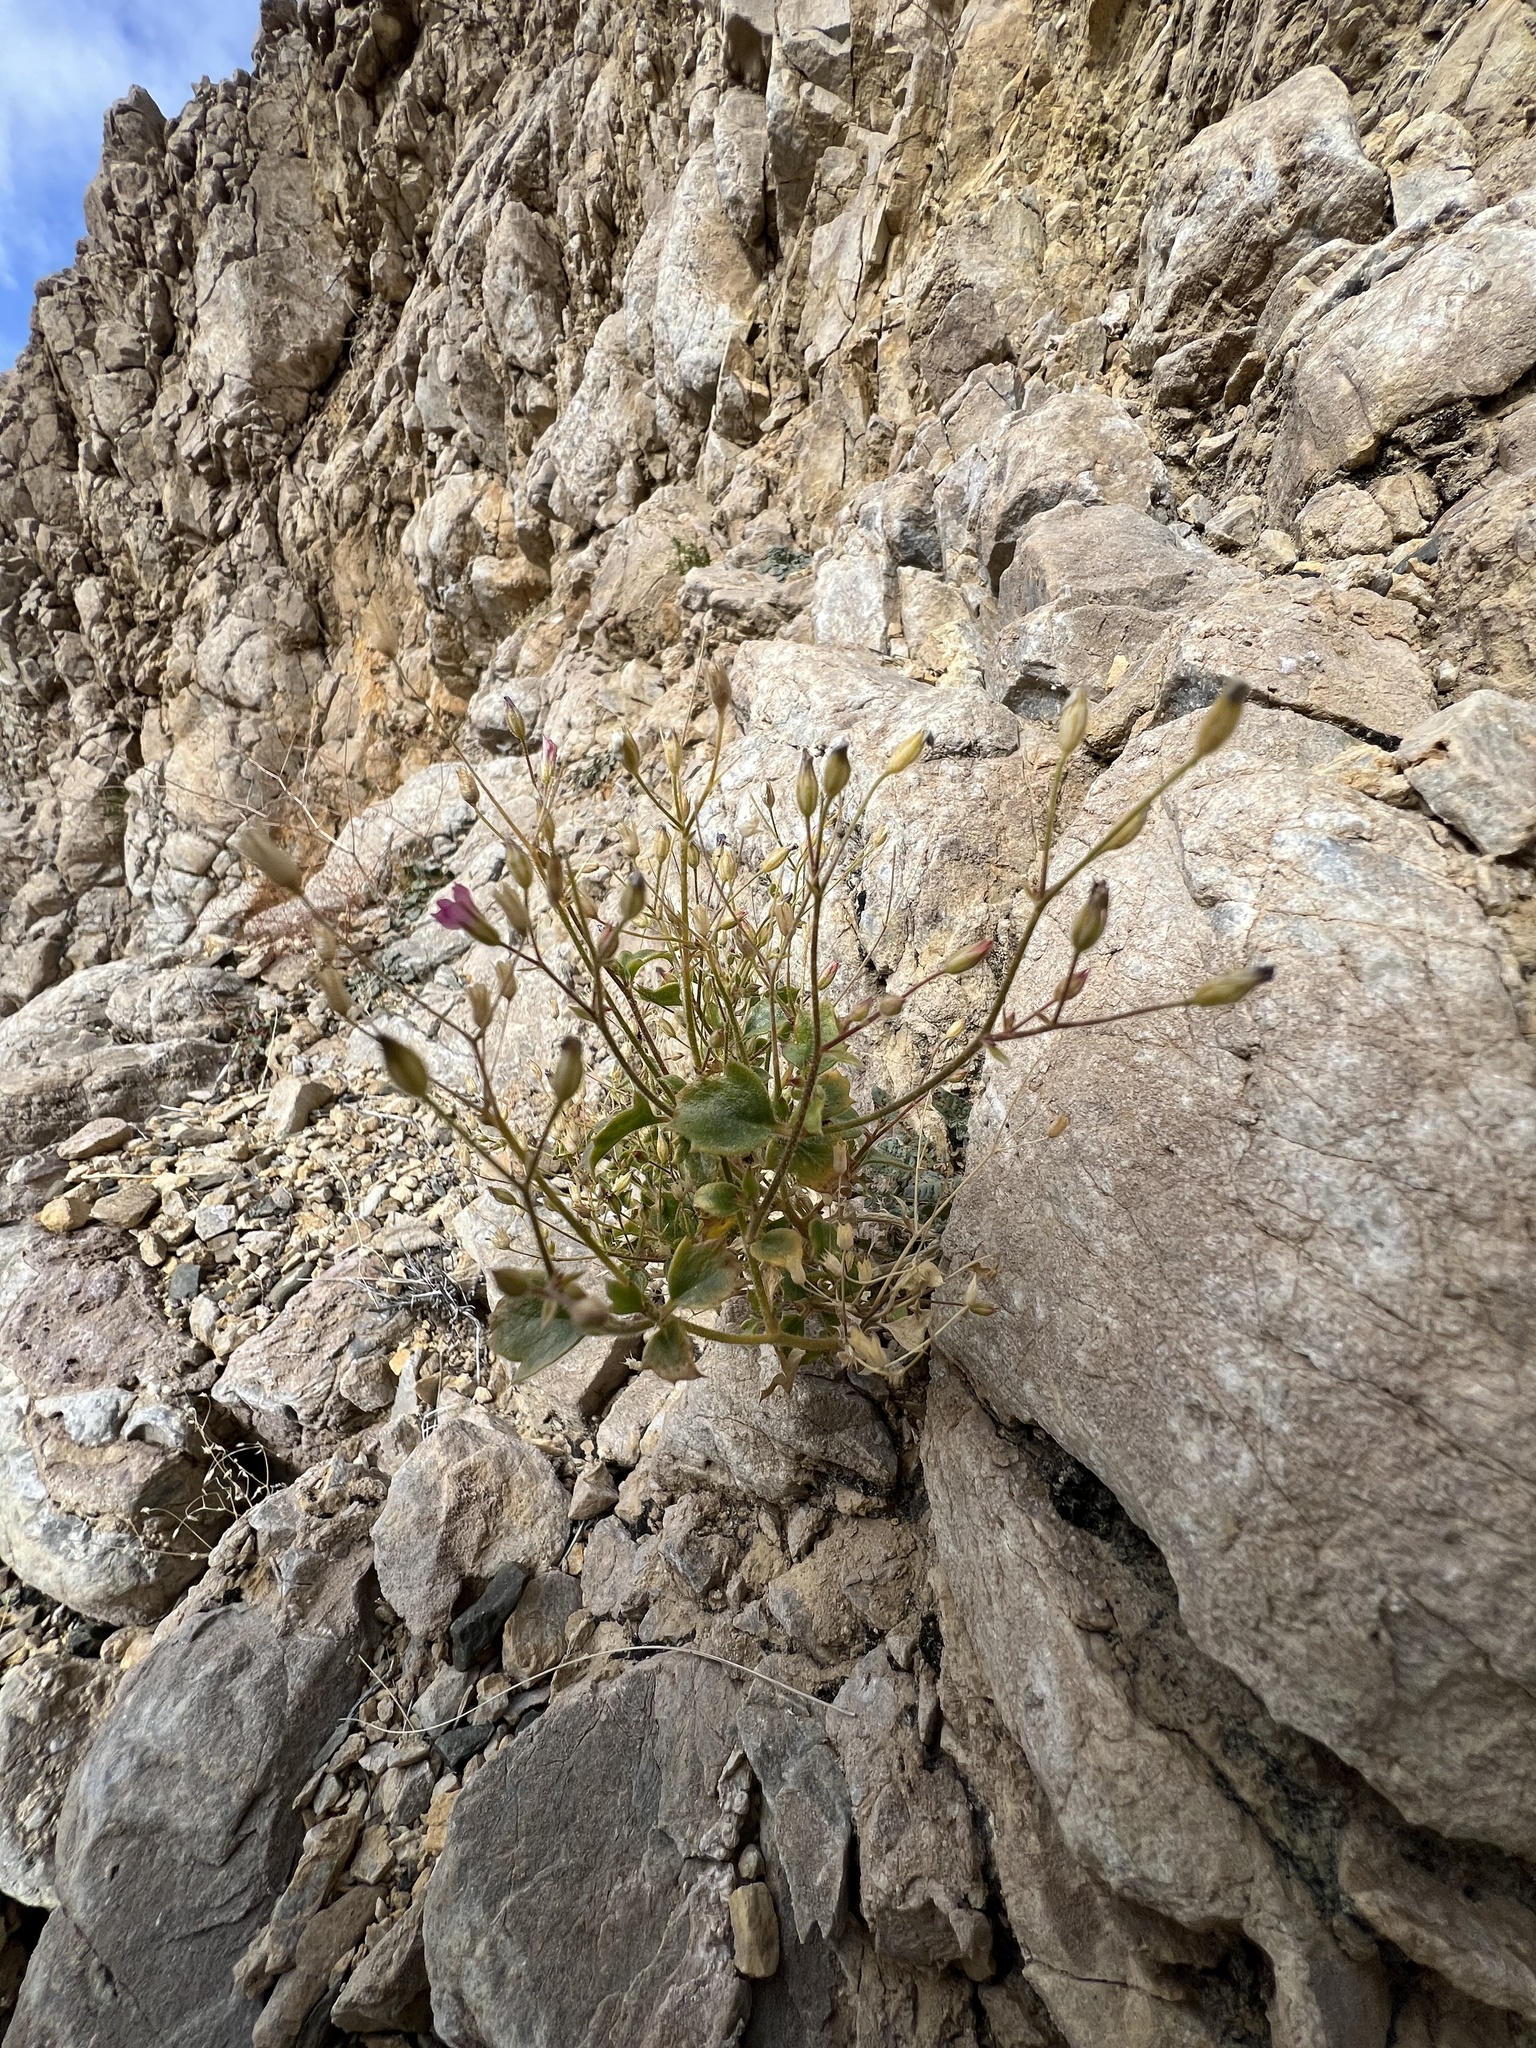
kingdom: Plantae
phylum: Tracheophyta
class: Magnoliopsida
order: Ericales
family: Polemoniaceae
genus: Aliciella
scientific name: Aliciella latifolia
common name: Broad-leaf gilia
